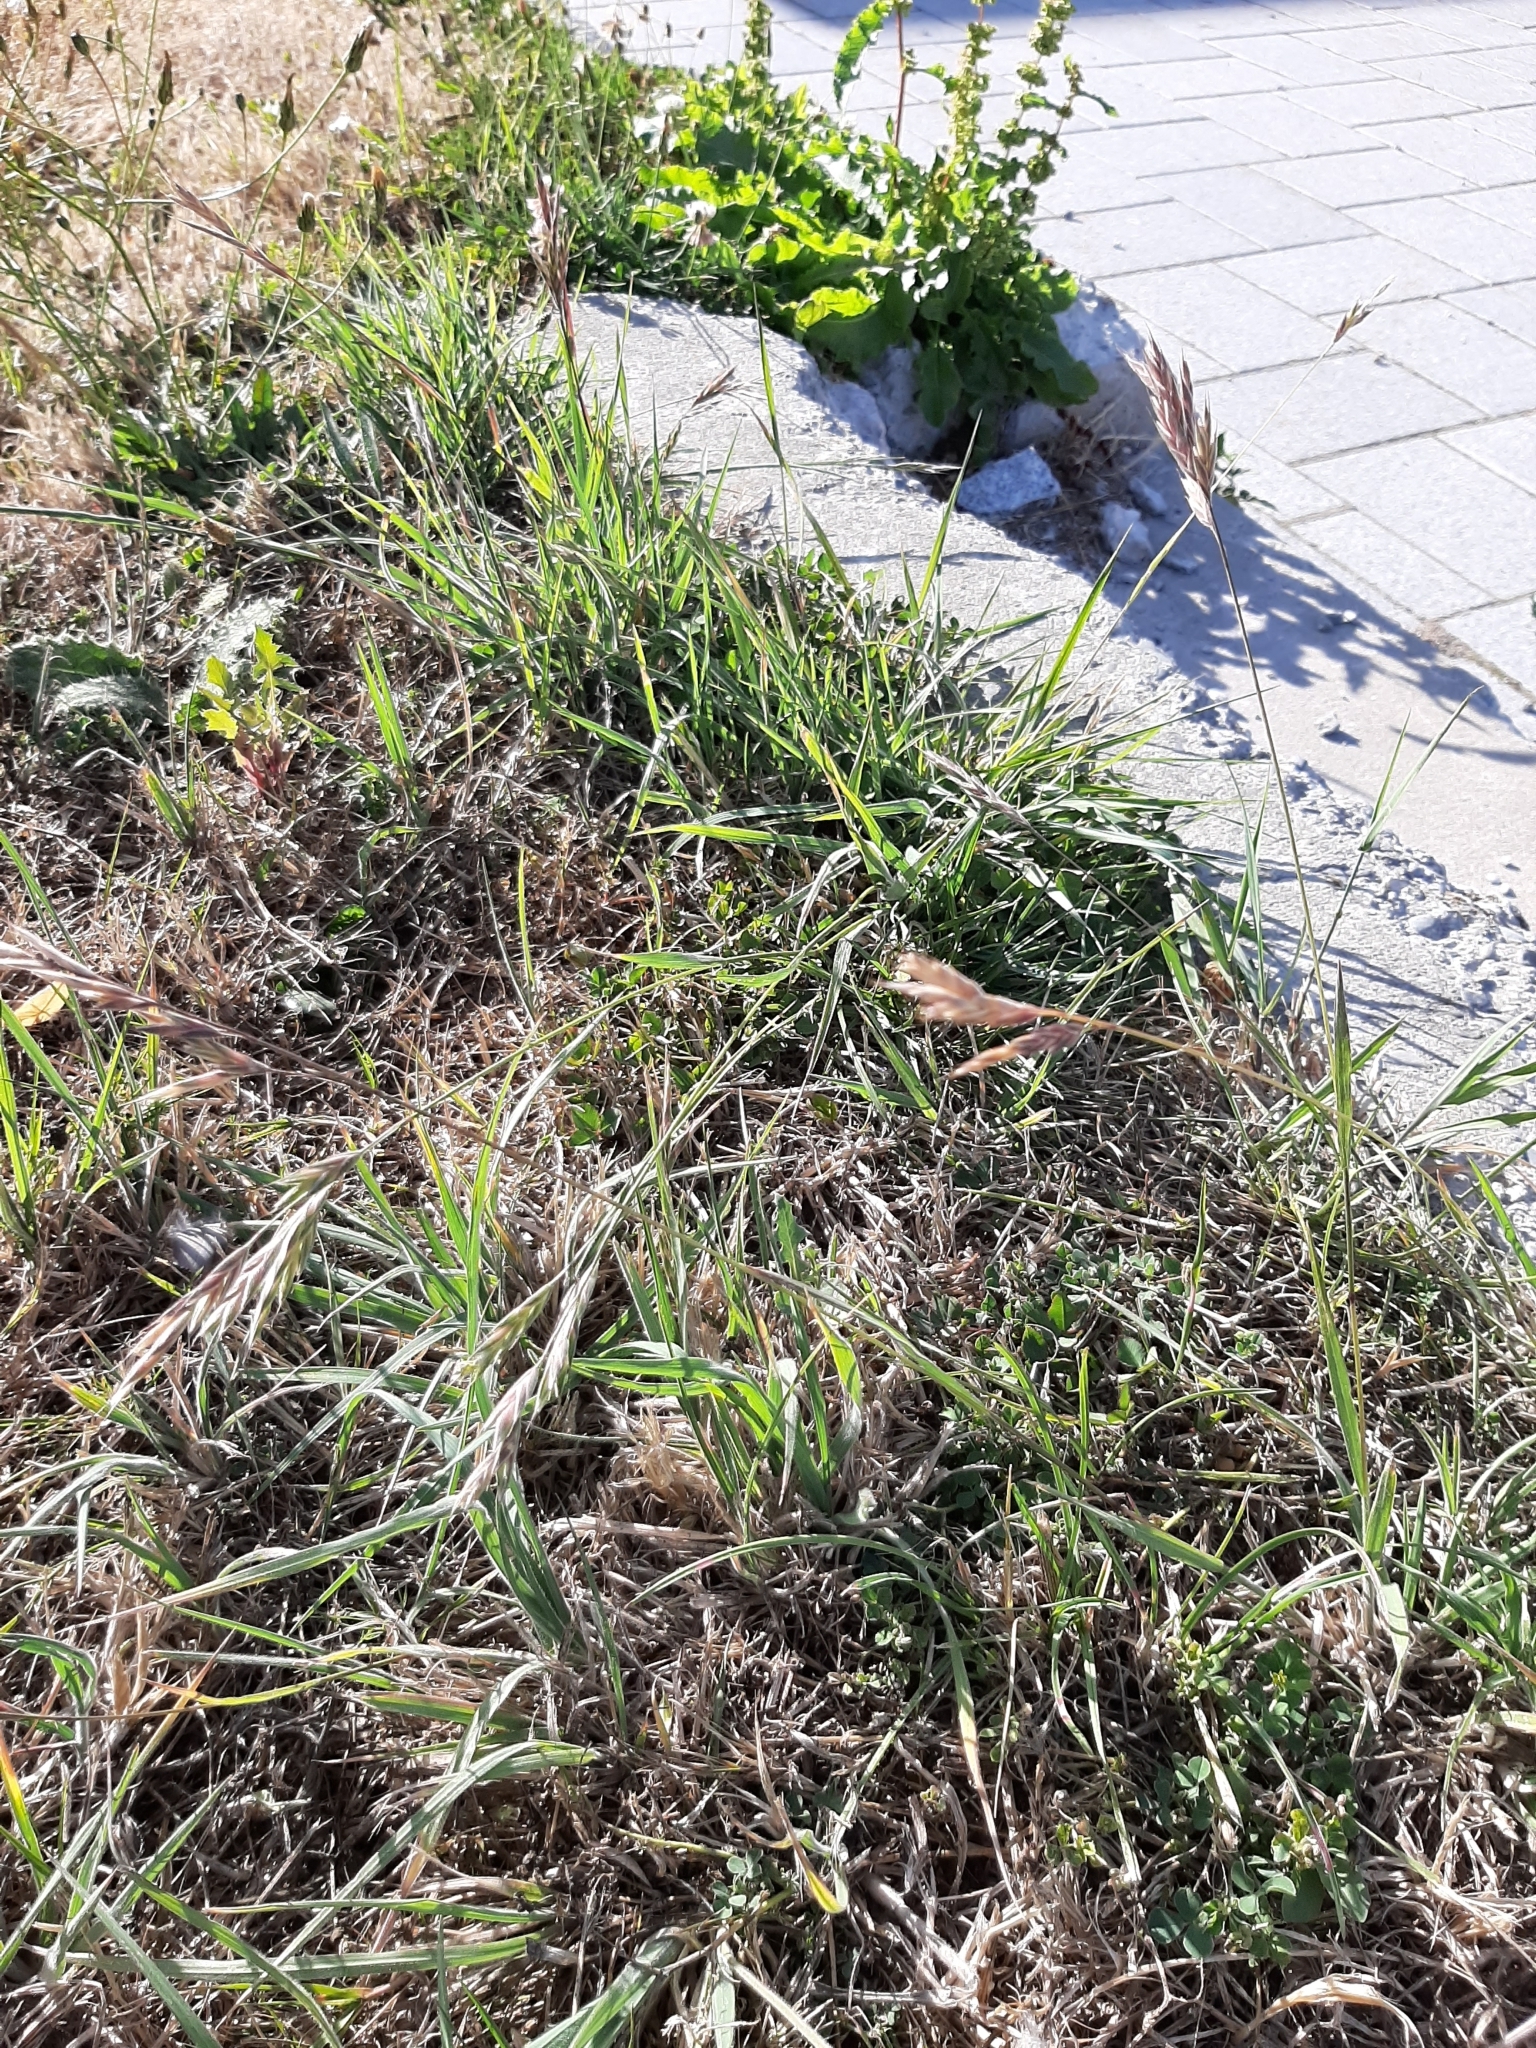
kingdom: Plantae
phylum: Tracheophyta
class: Liliopsida
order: Poales
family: Poaceae
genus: Bromus
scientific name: Bromus catharticus
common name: Rescuegrass
